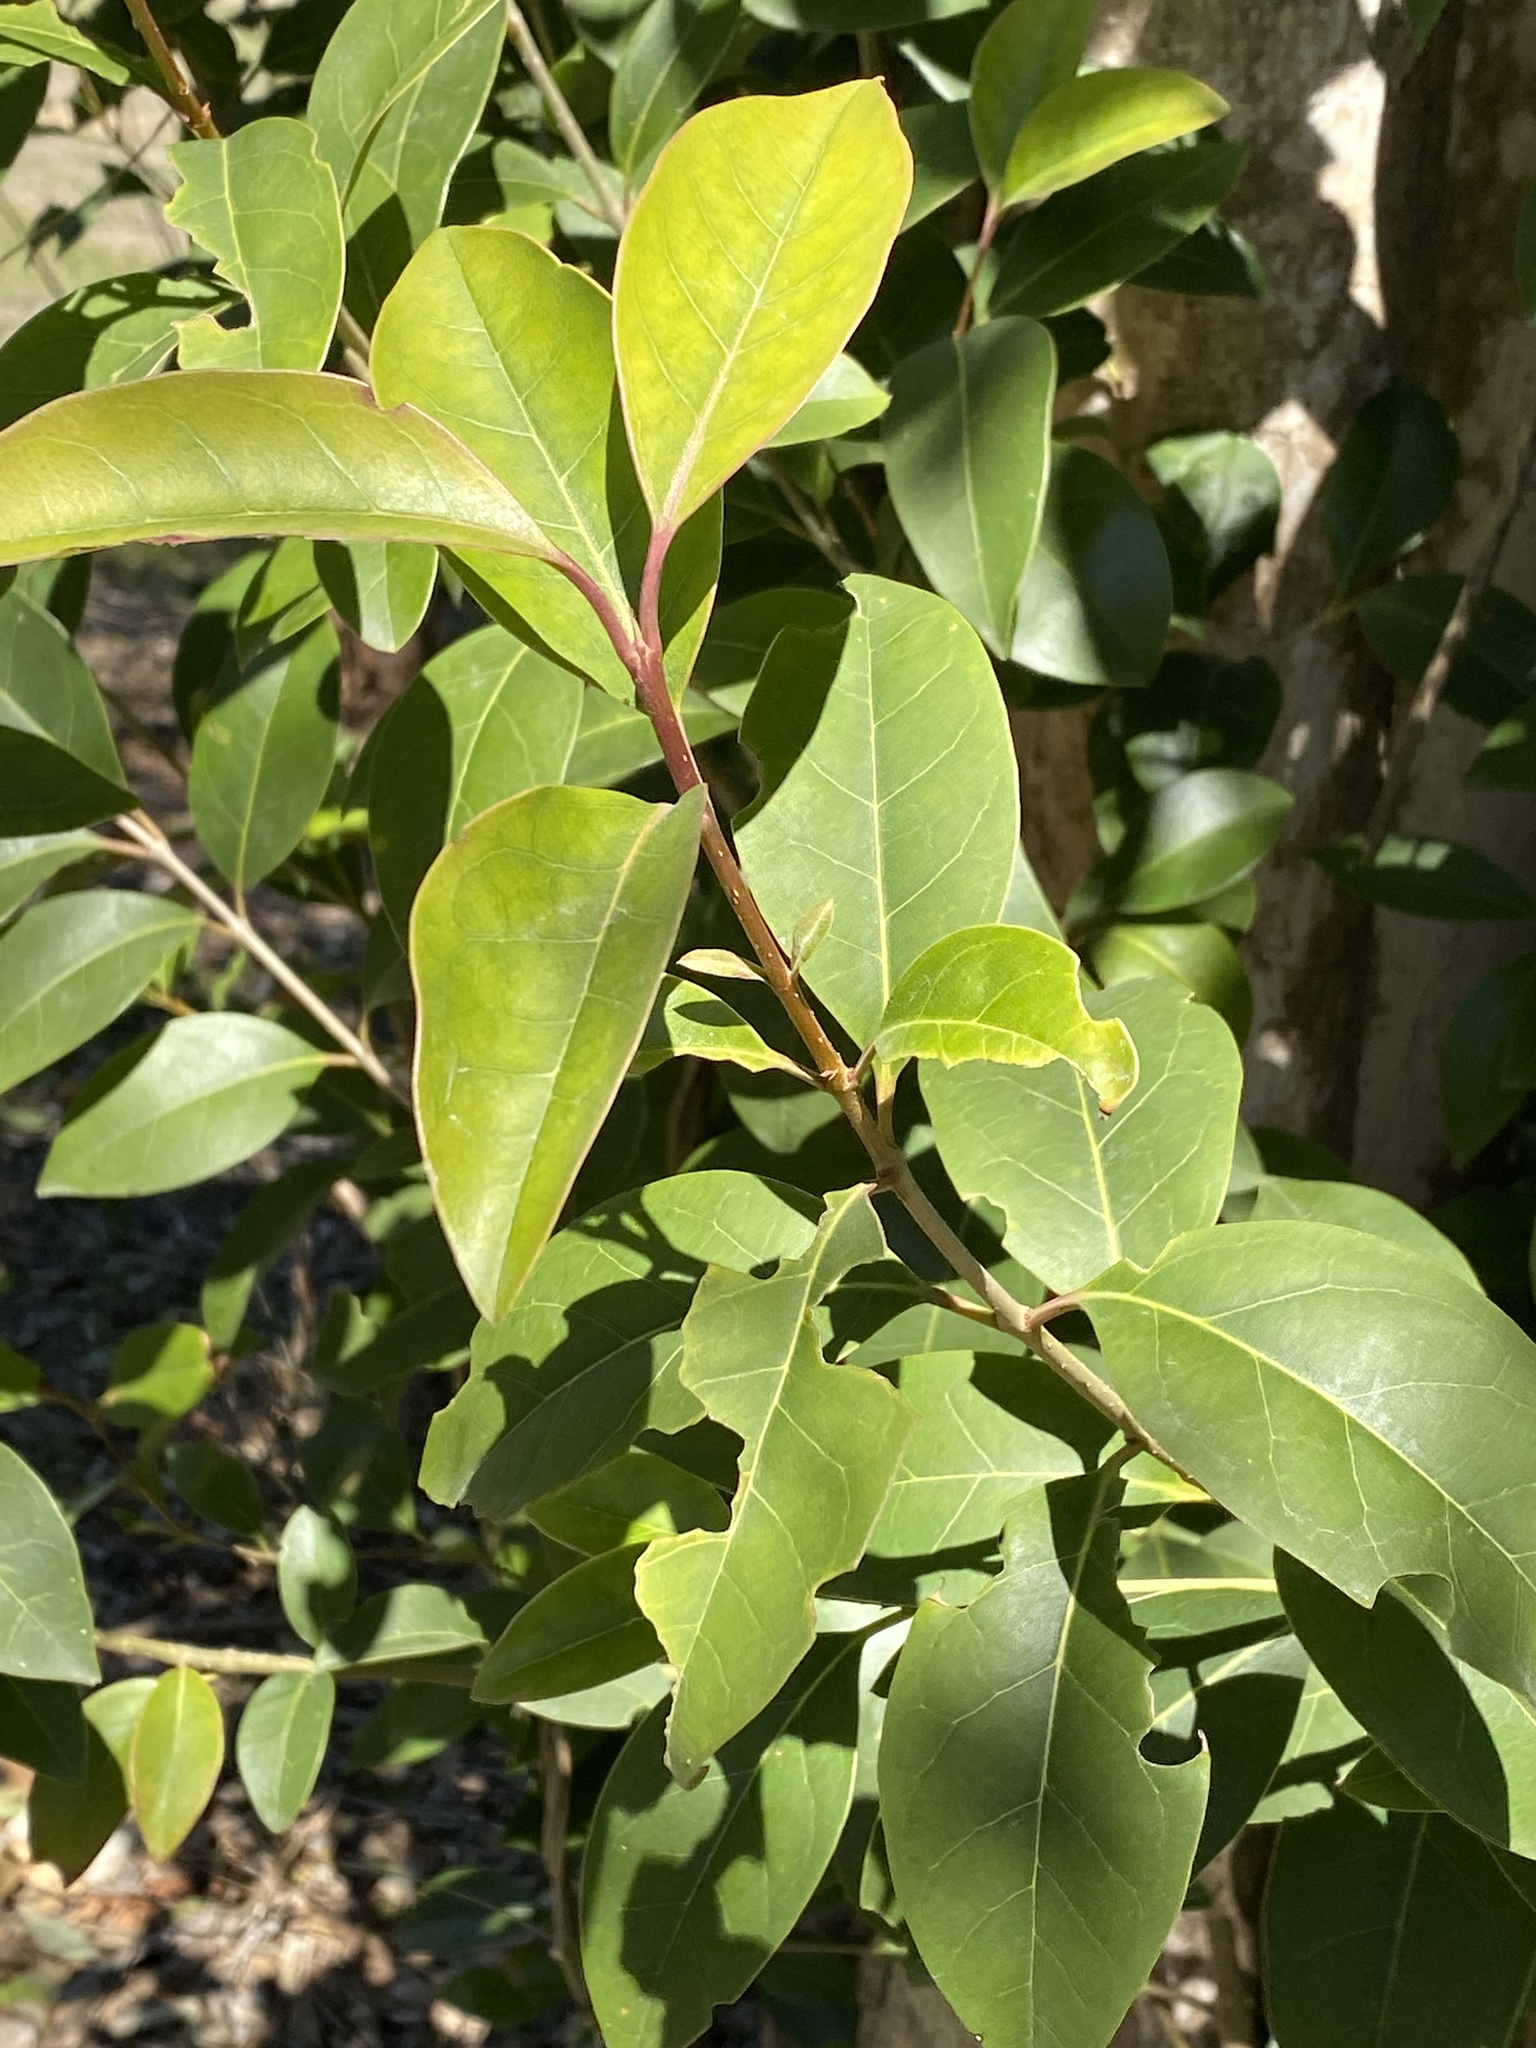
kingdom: Plantae
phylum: Tracheophyta
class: Magnoliopsida
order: Lamiales
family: Oleaceae
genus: Ligustrum
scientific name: Ligustrum lucidum
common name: Glossy privet
